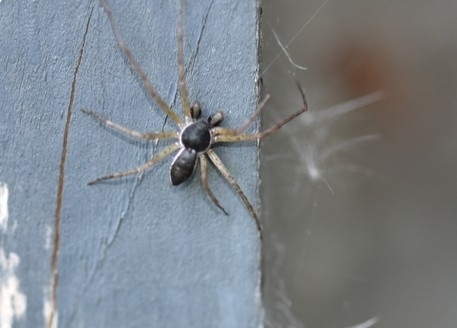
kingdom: Animalia
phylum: Arthropoda
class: Arachnida
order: Araneae
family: Philodromidae
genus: Philodromus
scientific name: Philodromus dispar
